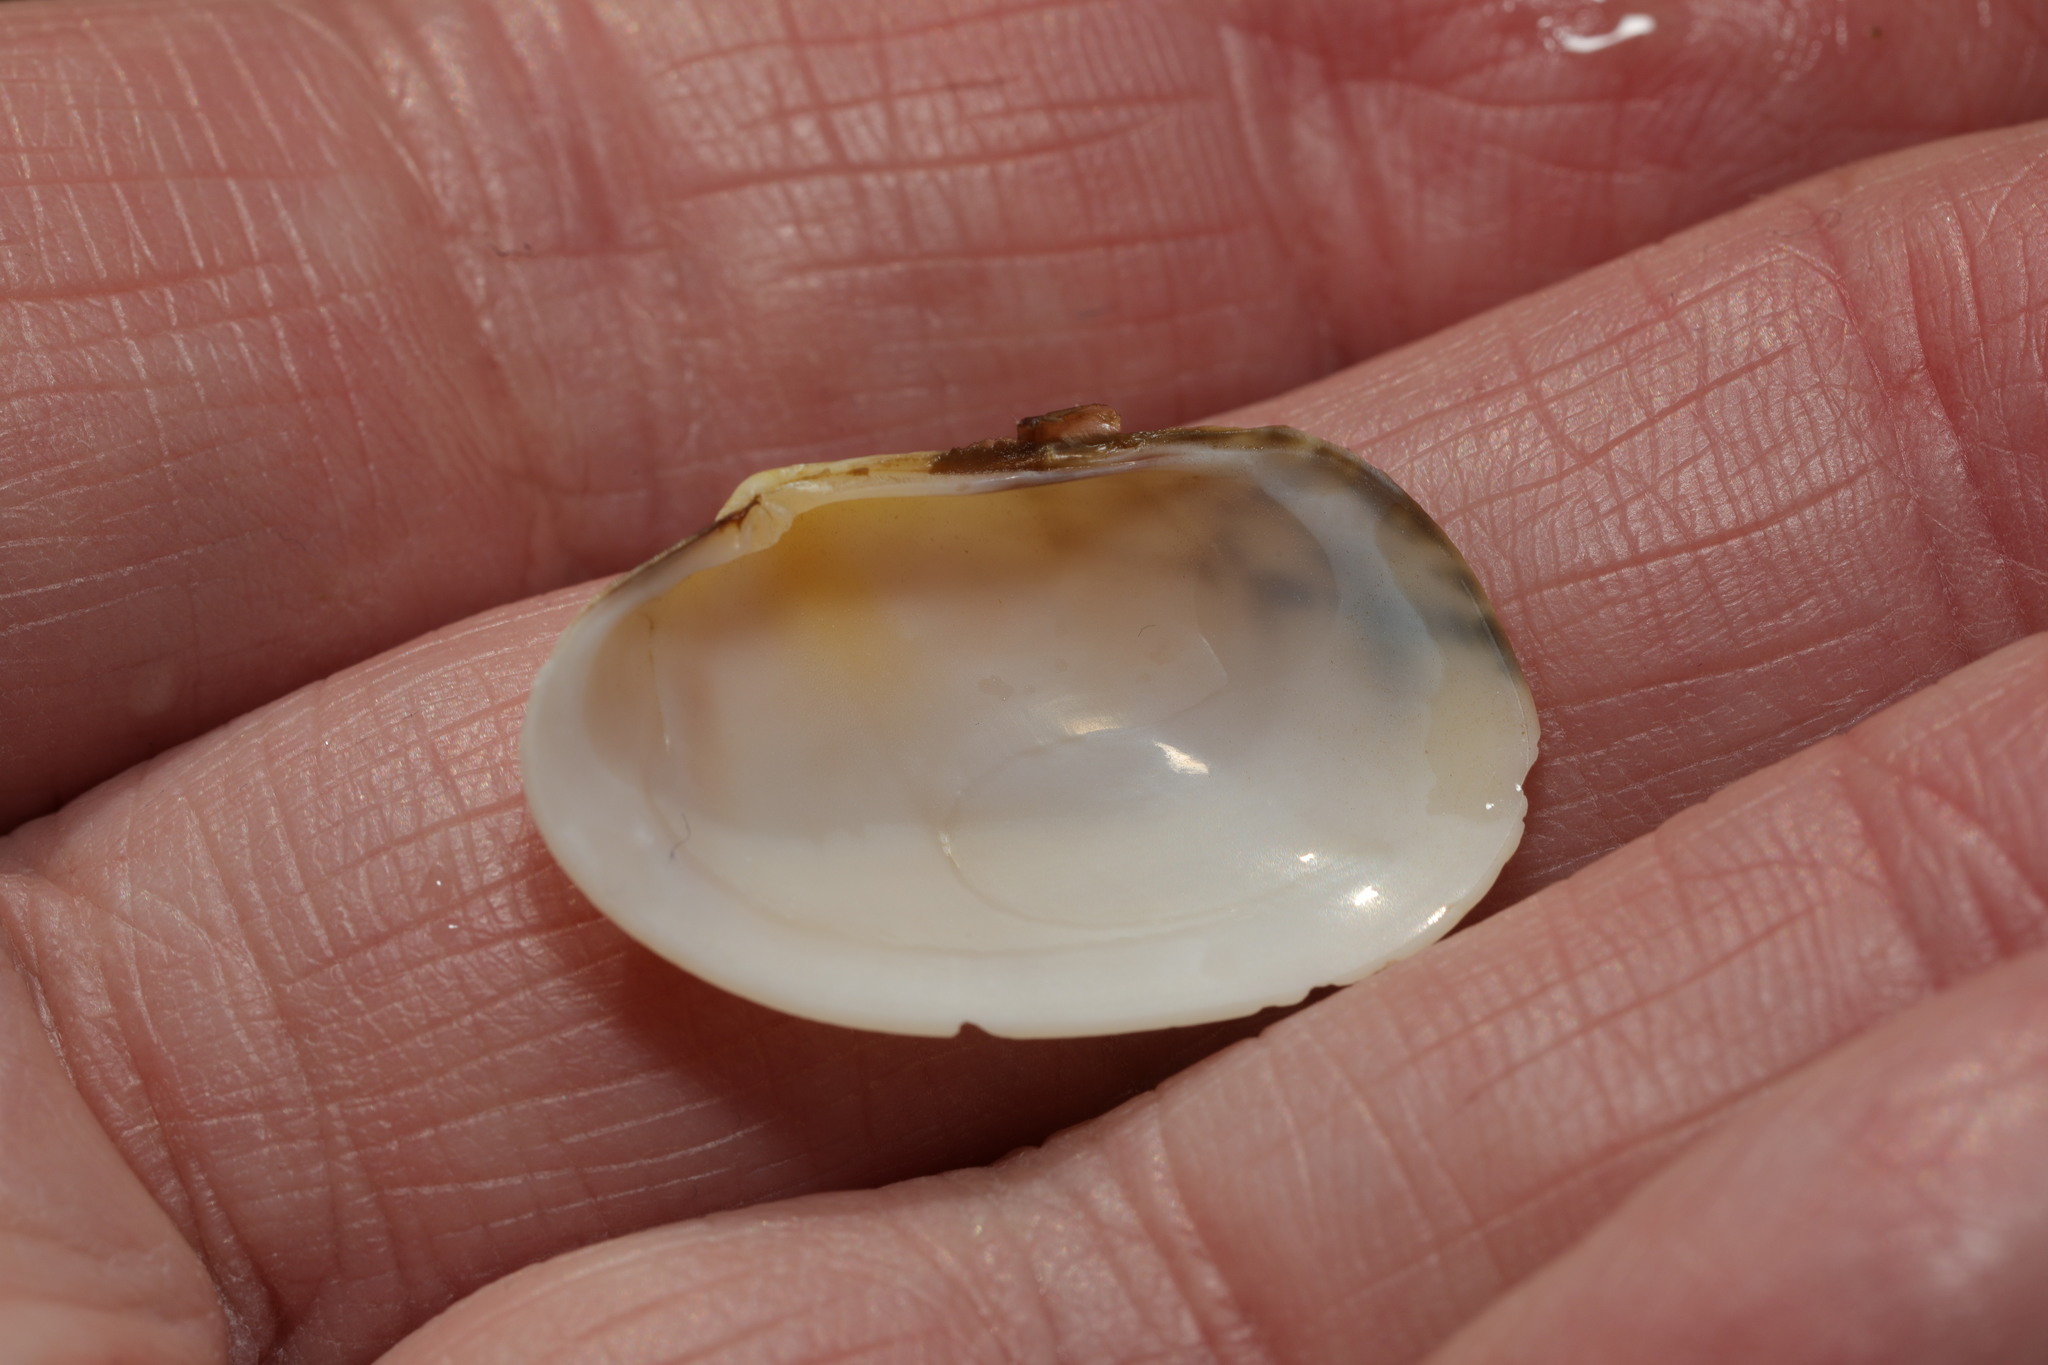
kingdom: Animalia
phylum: Mollusca
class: Bivalvia
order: Venerida
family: Veneridae
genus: Venerupis
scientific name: Venerupis corrugata
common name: Pullet carpet shell
